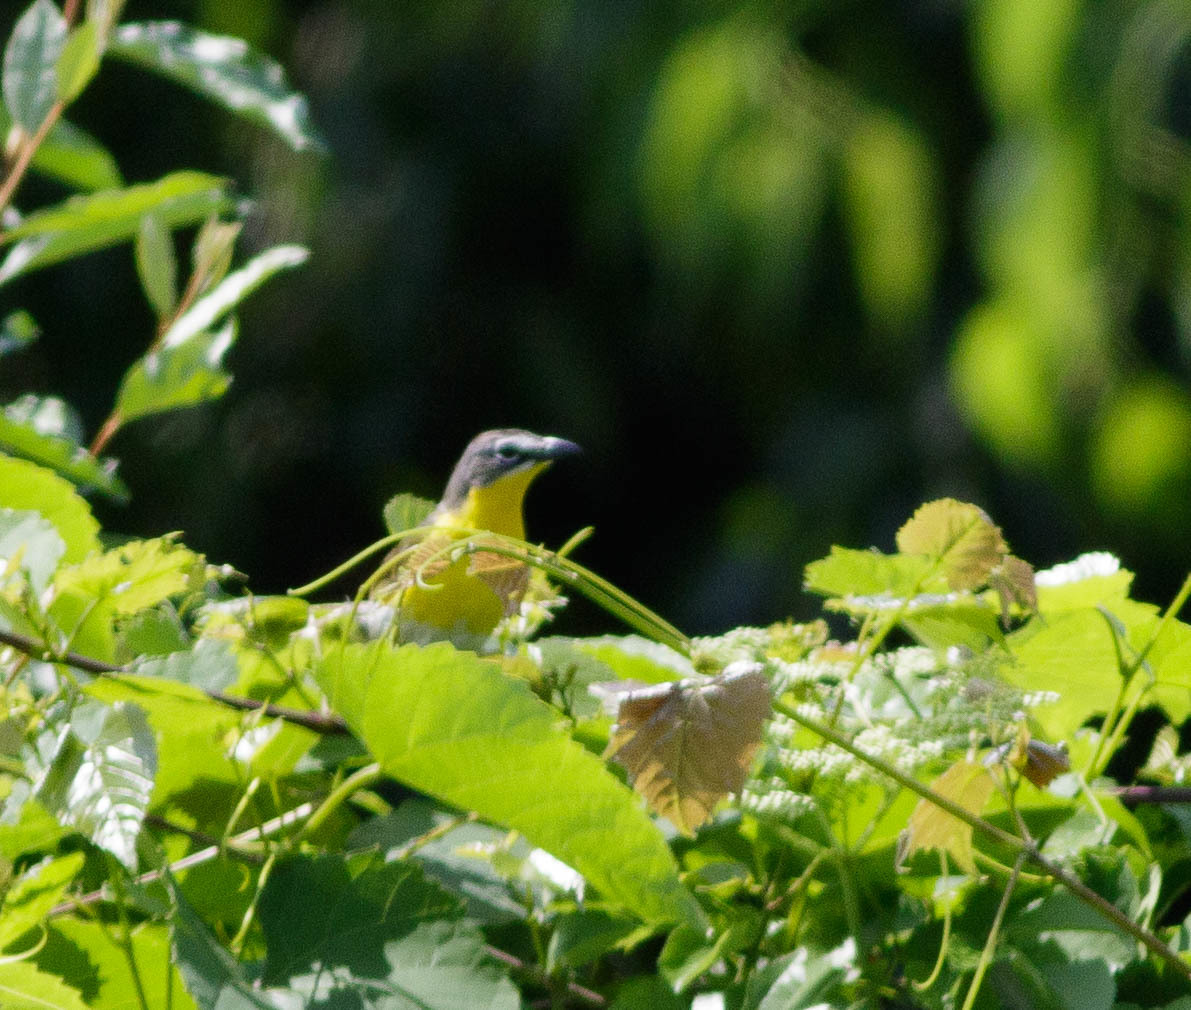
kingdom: Animalia
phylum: Chordata
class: Aves
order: Passeriformes
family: Parulidae
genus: Icteria
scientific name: Icteria virens
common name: Yellow-breasted chat
